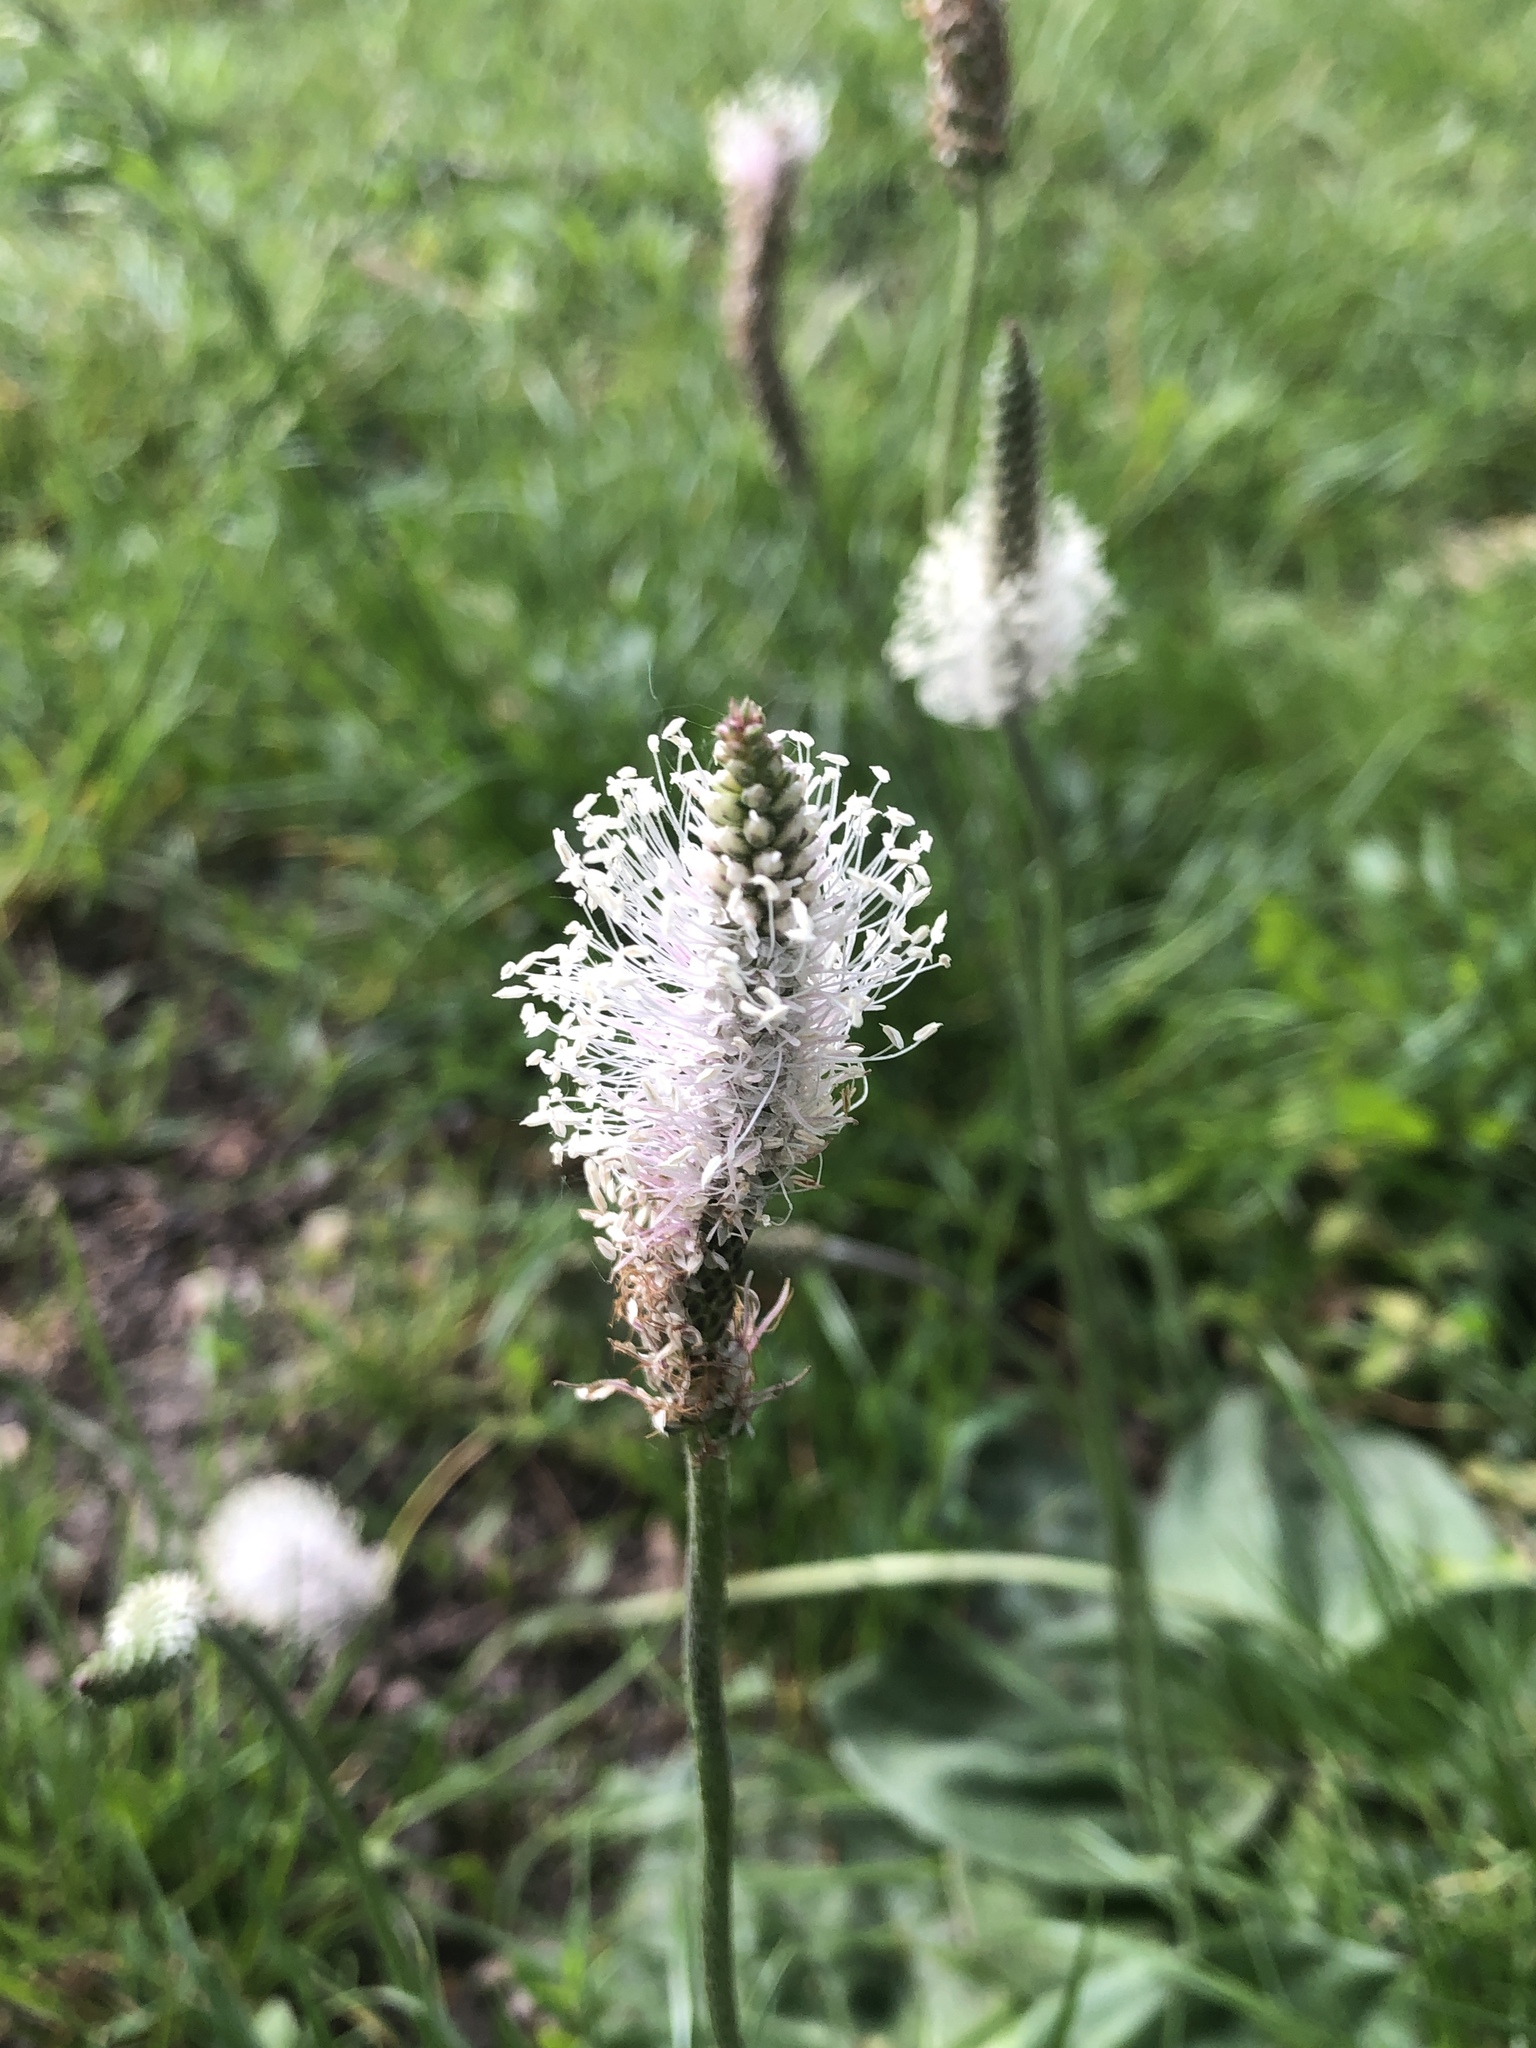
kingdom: Plantae
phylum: Tracheophyta
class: Magnoliopsida
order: Lamiales
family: Plantaginaceae
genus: Plantago
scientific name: Plantago media
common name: Hoary plantain
